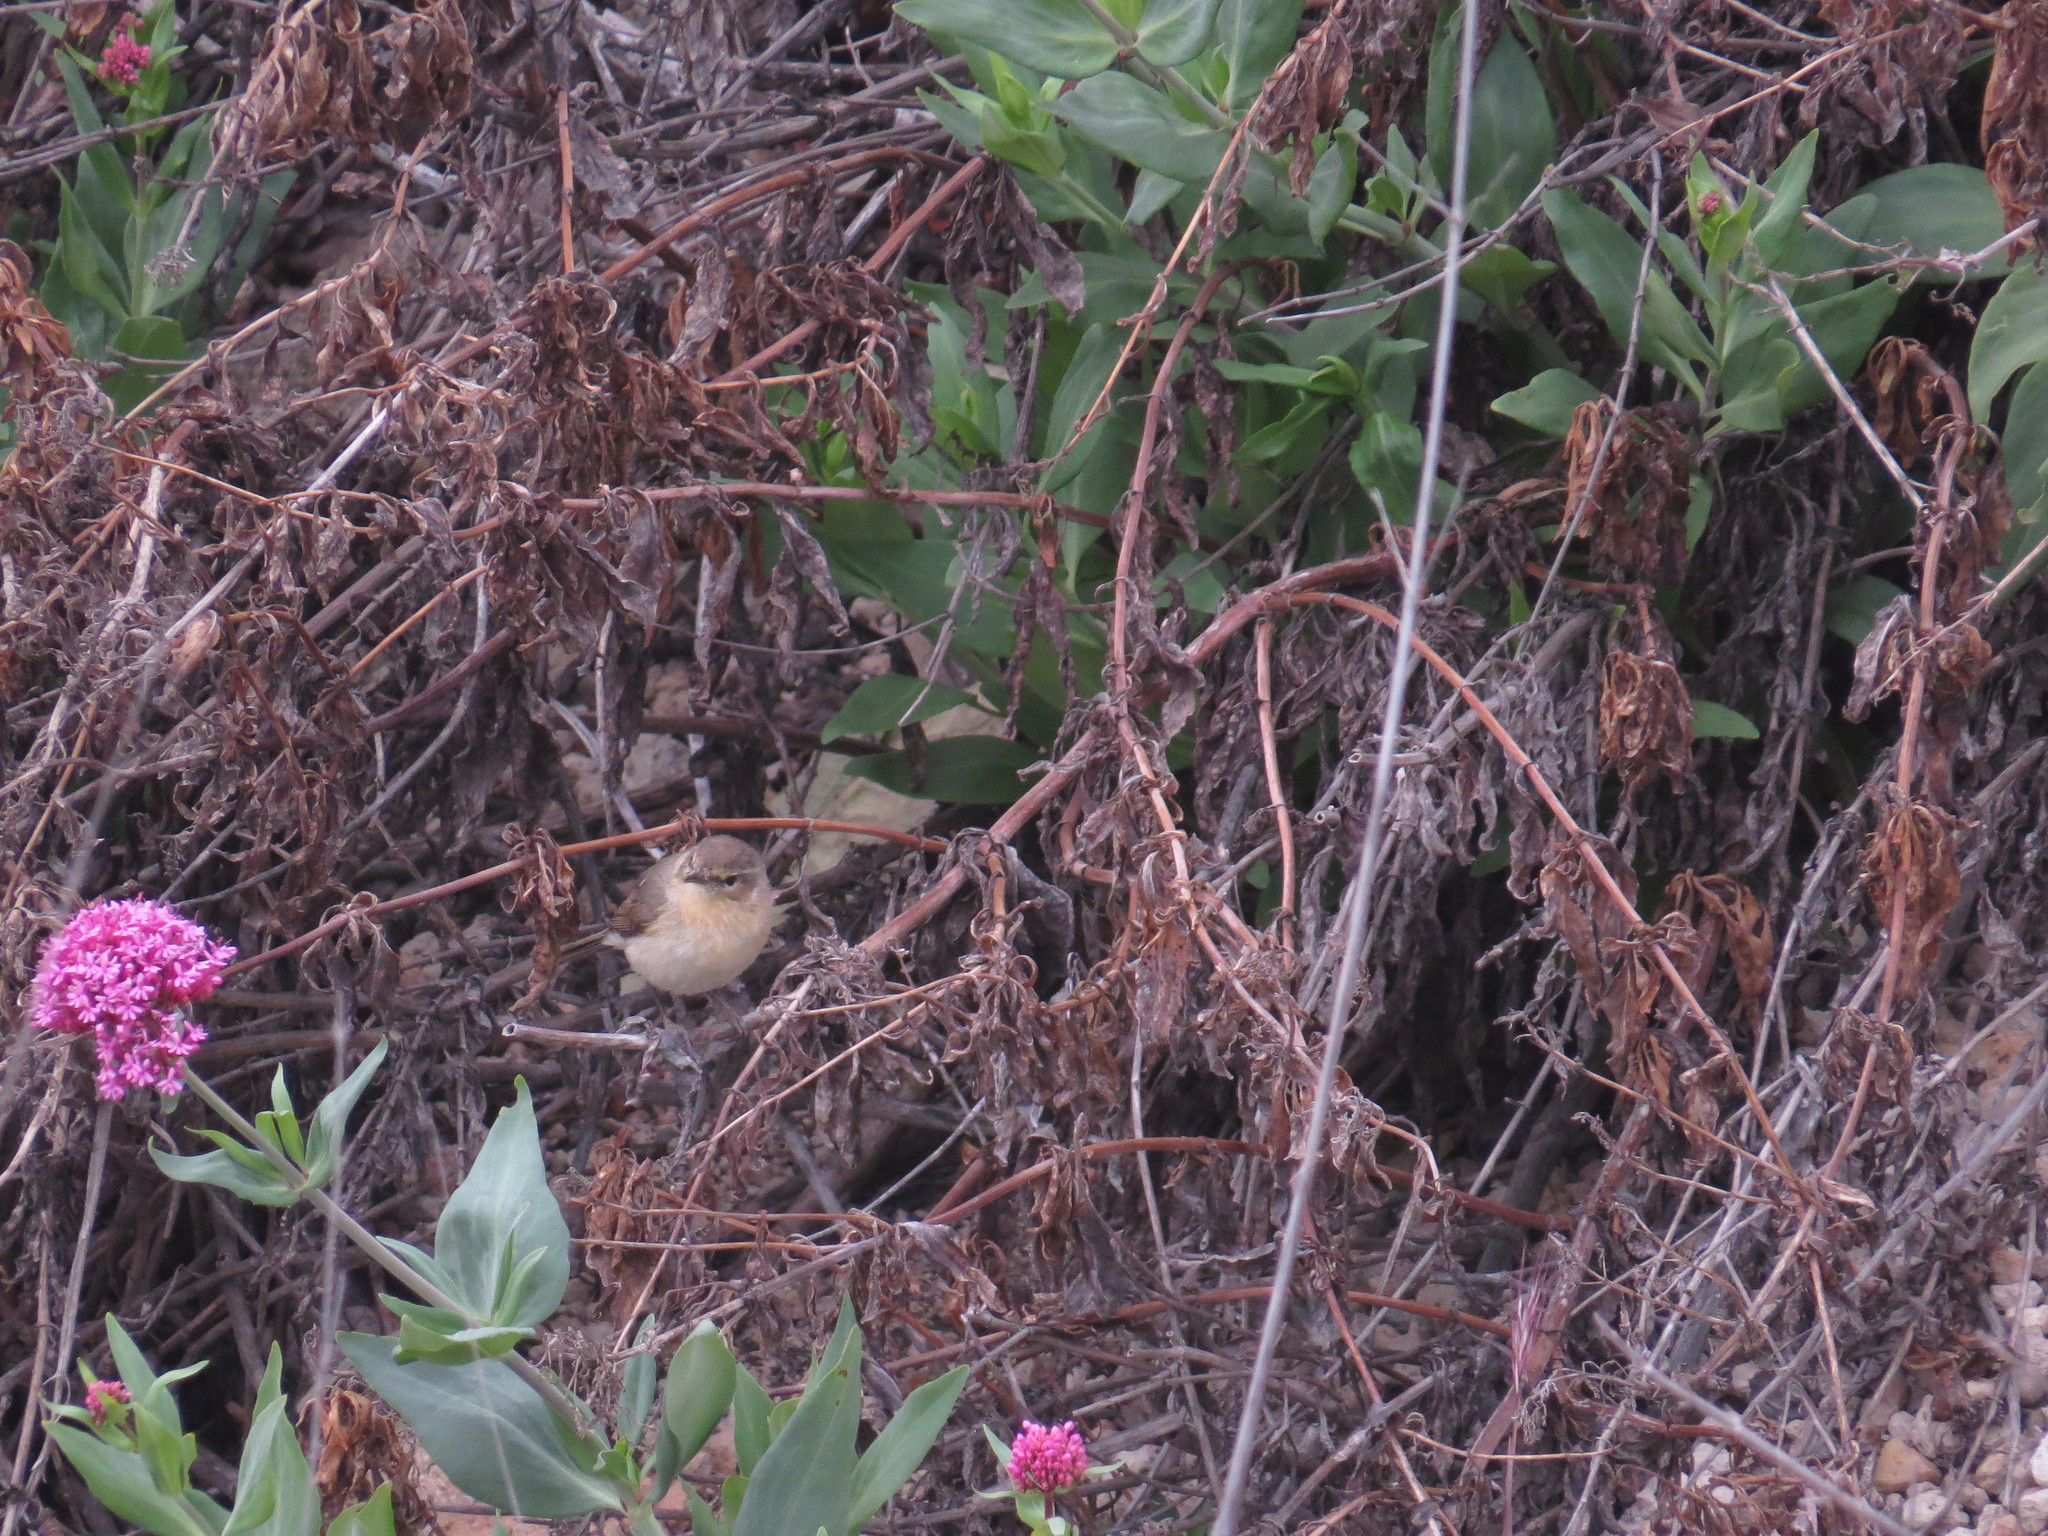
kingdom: Animalia
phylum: Chordata
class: Aves
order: Passeriformes
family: Phylloscopidae
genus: Phylloscopus
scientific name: Phylloscopus canariensis
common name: Canary islands chiffchaff
